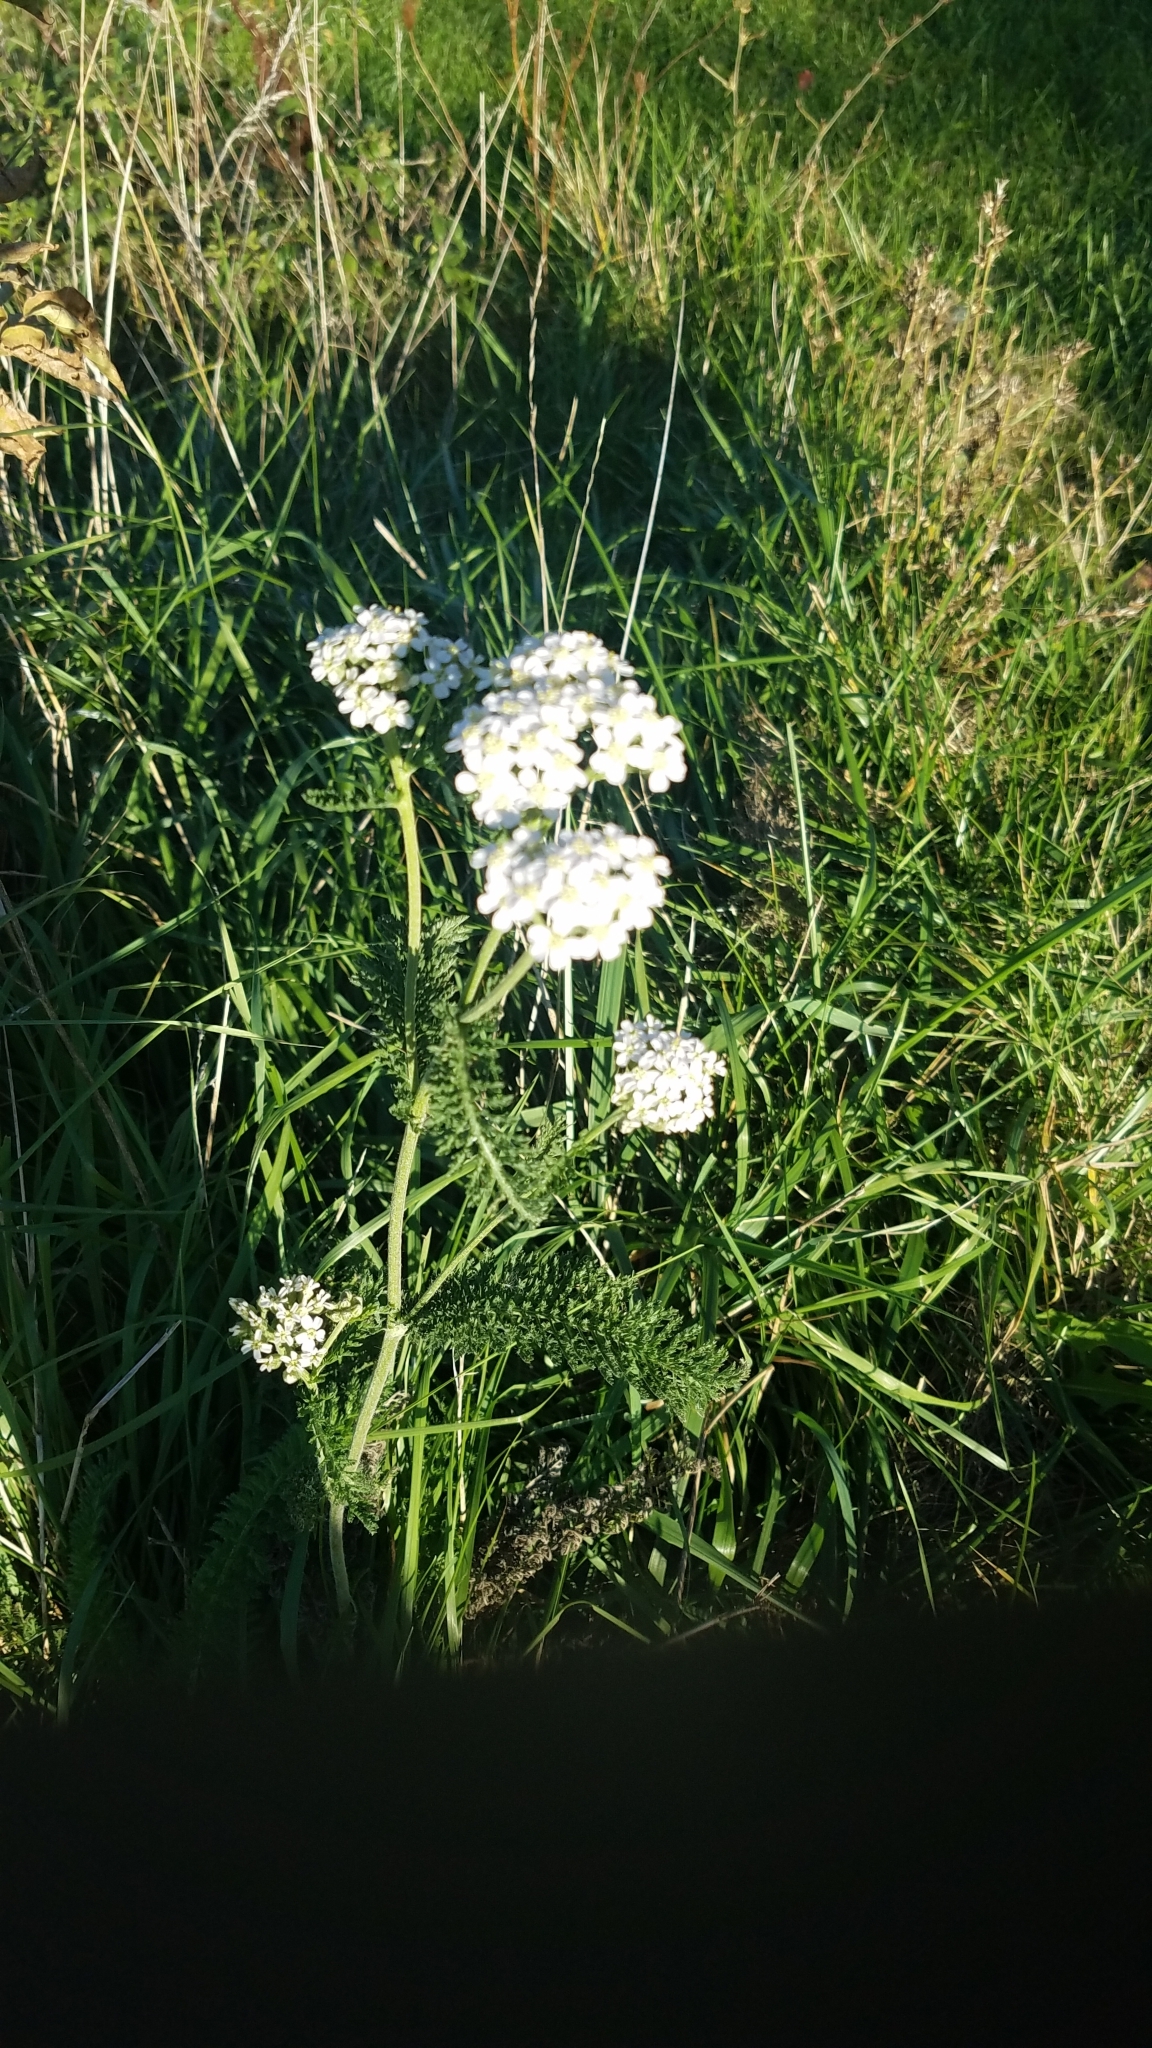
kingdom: Plantae
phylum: Tracheophyta
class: Magnoliopsida
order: Asterales
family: Asteraceae
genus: Achillea
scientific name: Achillea millefolium
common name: Yarrow
